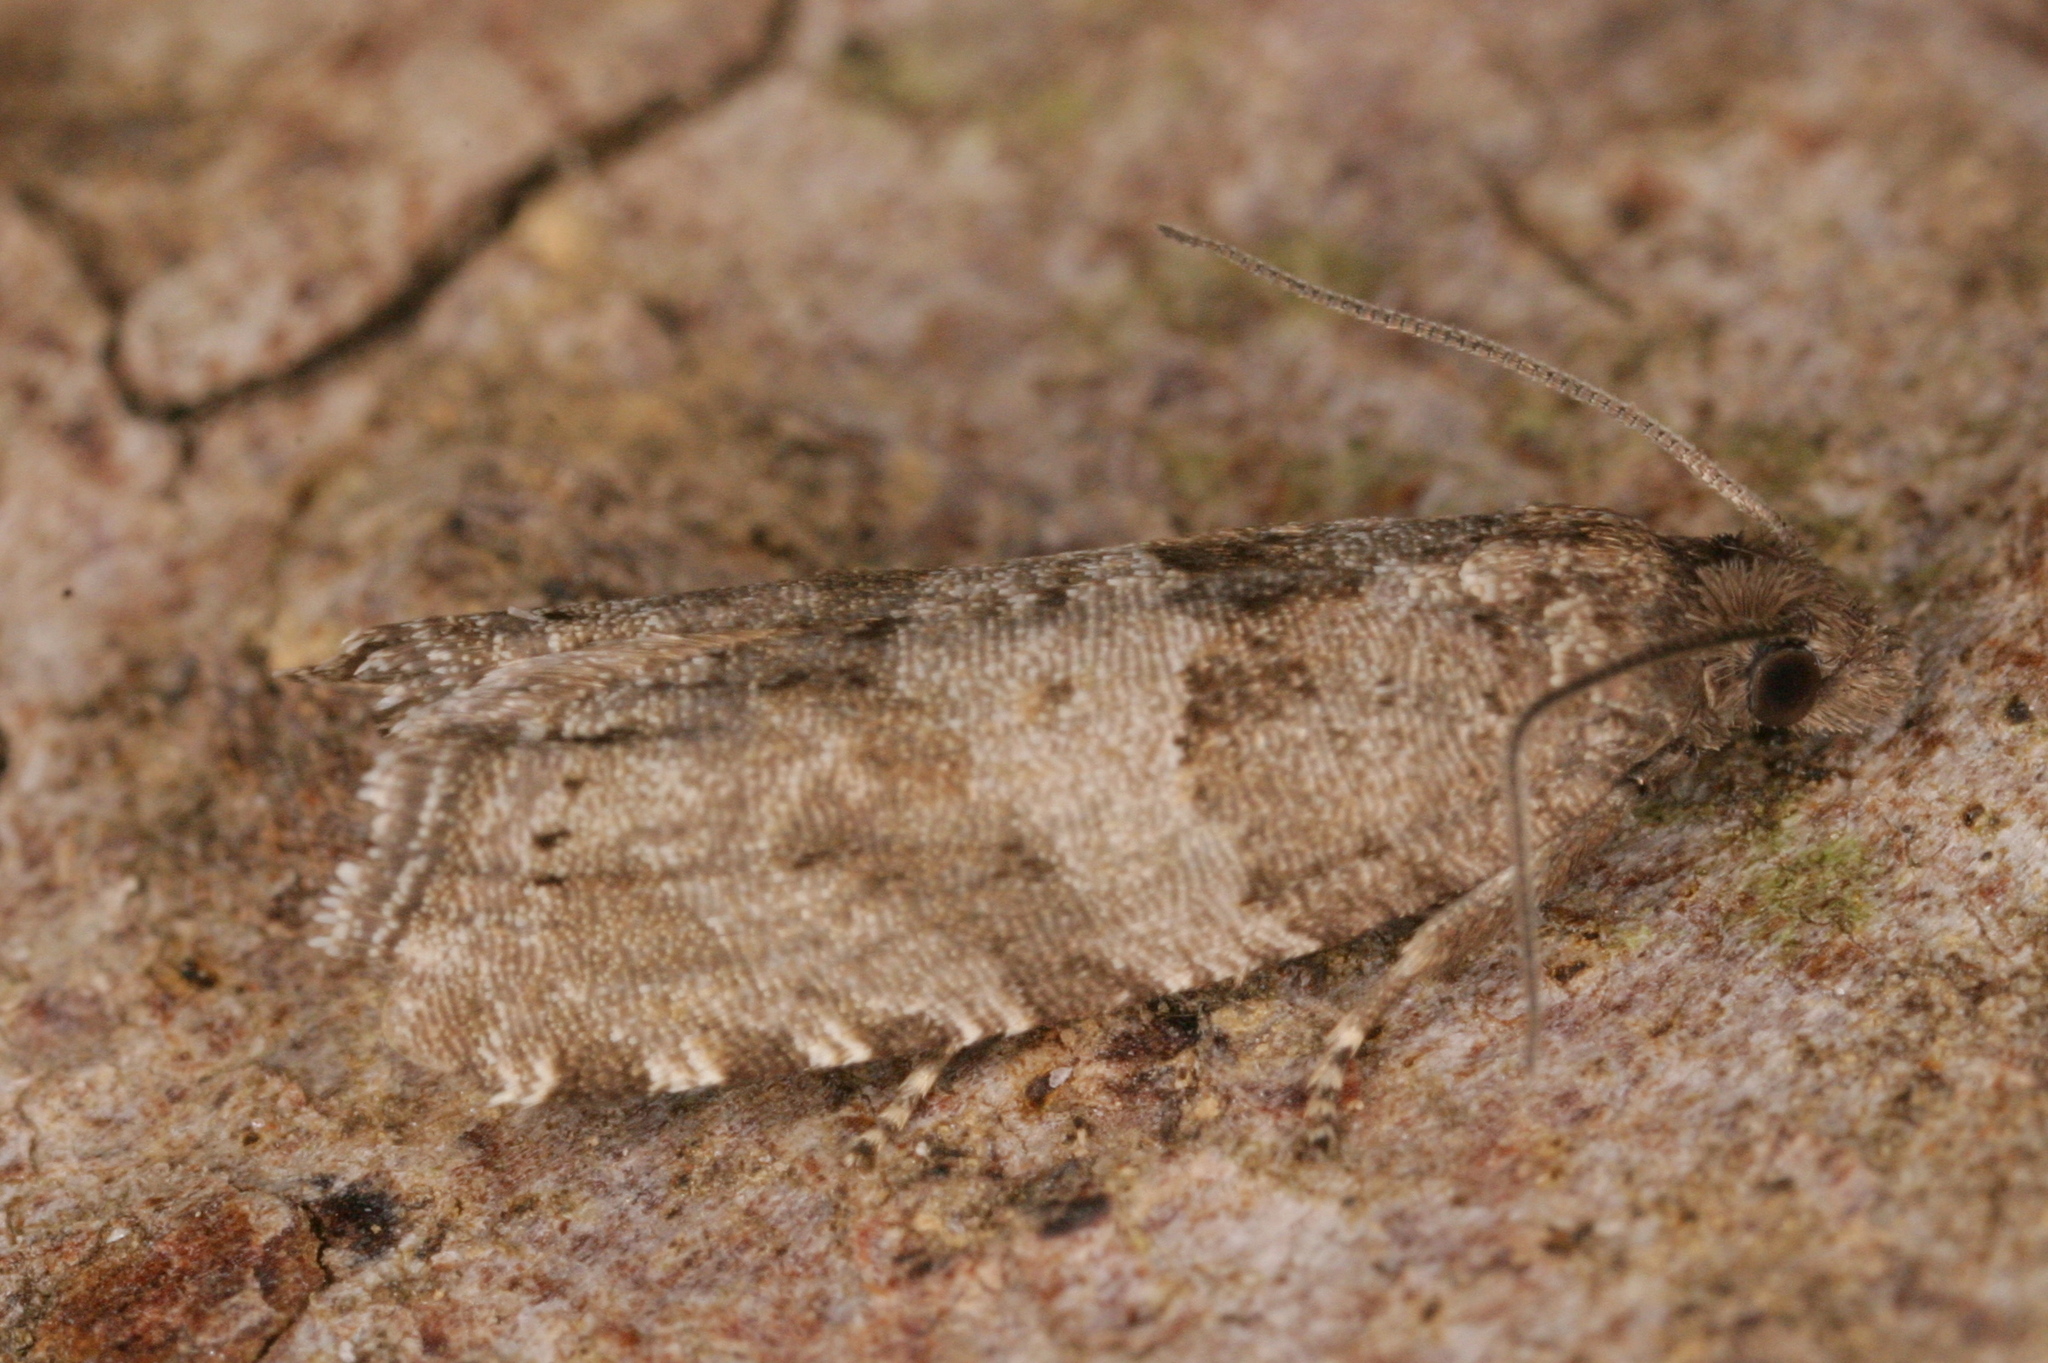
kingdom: Animalia
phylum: Arthropoda
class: Insecta
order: Lepidoptera
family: Tortricidae
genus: Rhopobota
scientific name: Rhopobota stagnana
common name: Downland bell
